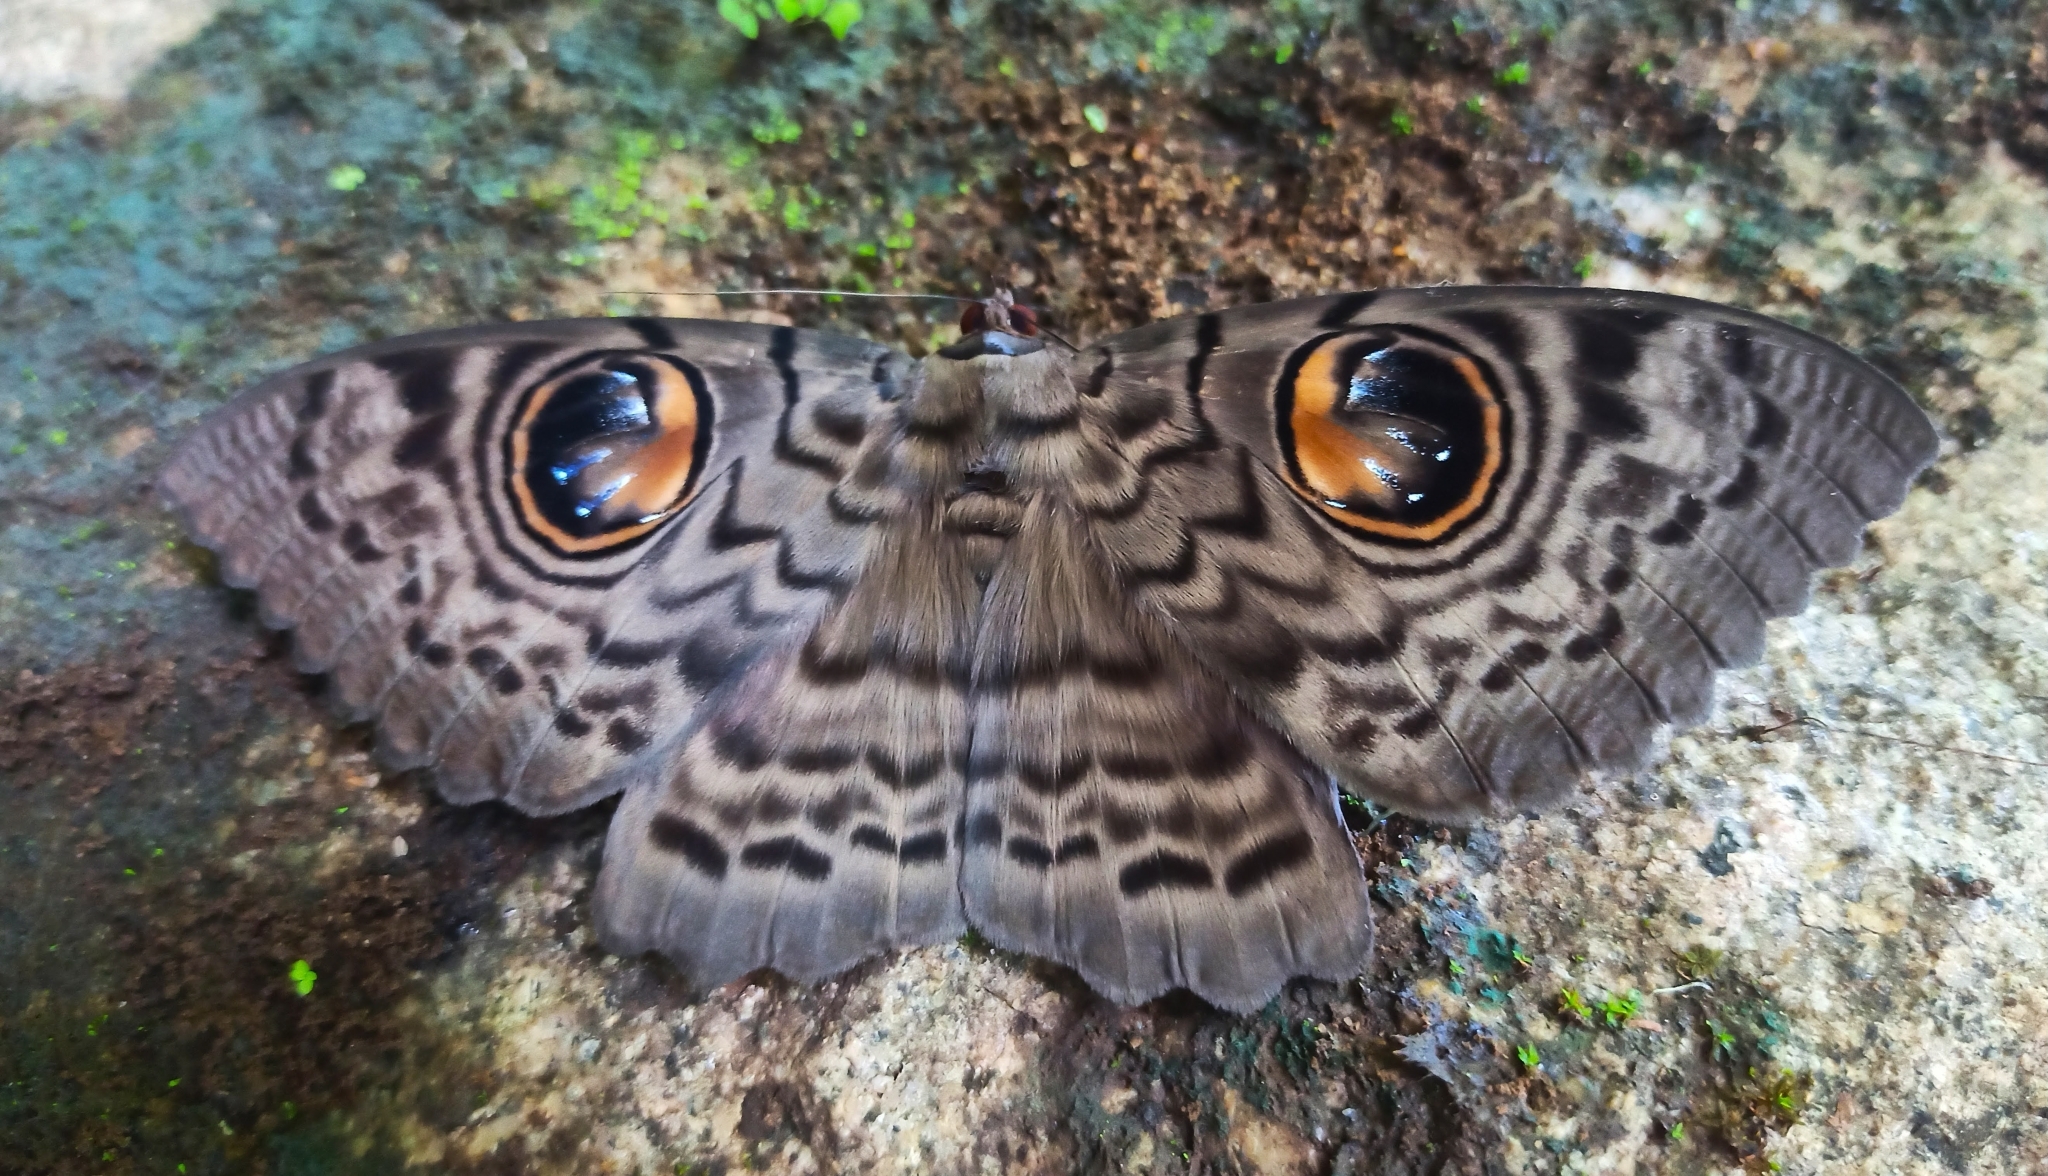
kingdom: Animalia
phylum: Arthropoda
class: Insecta
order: Lepidoptera
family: Erebidae
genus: Erebus
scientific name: Erebus macrops
